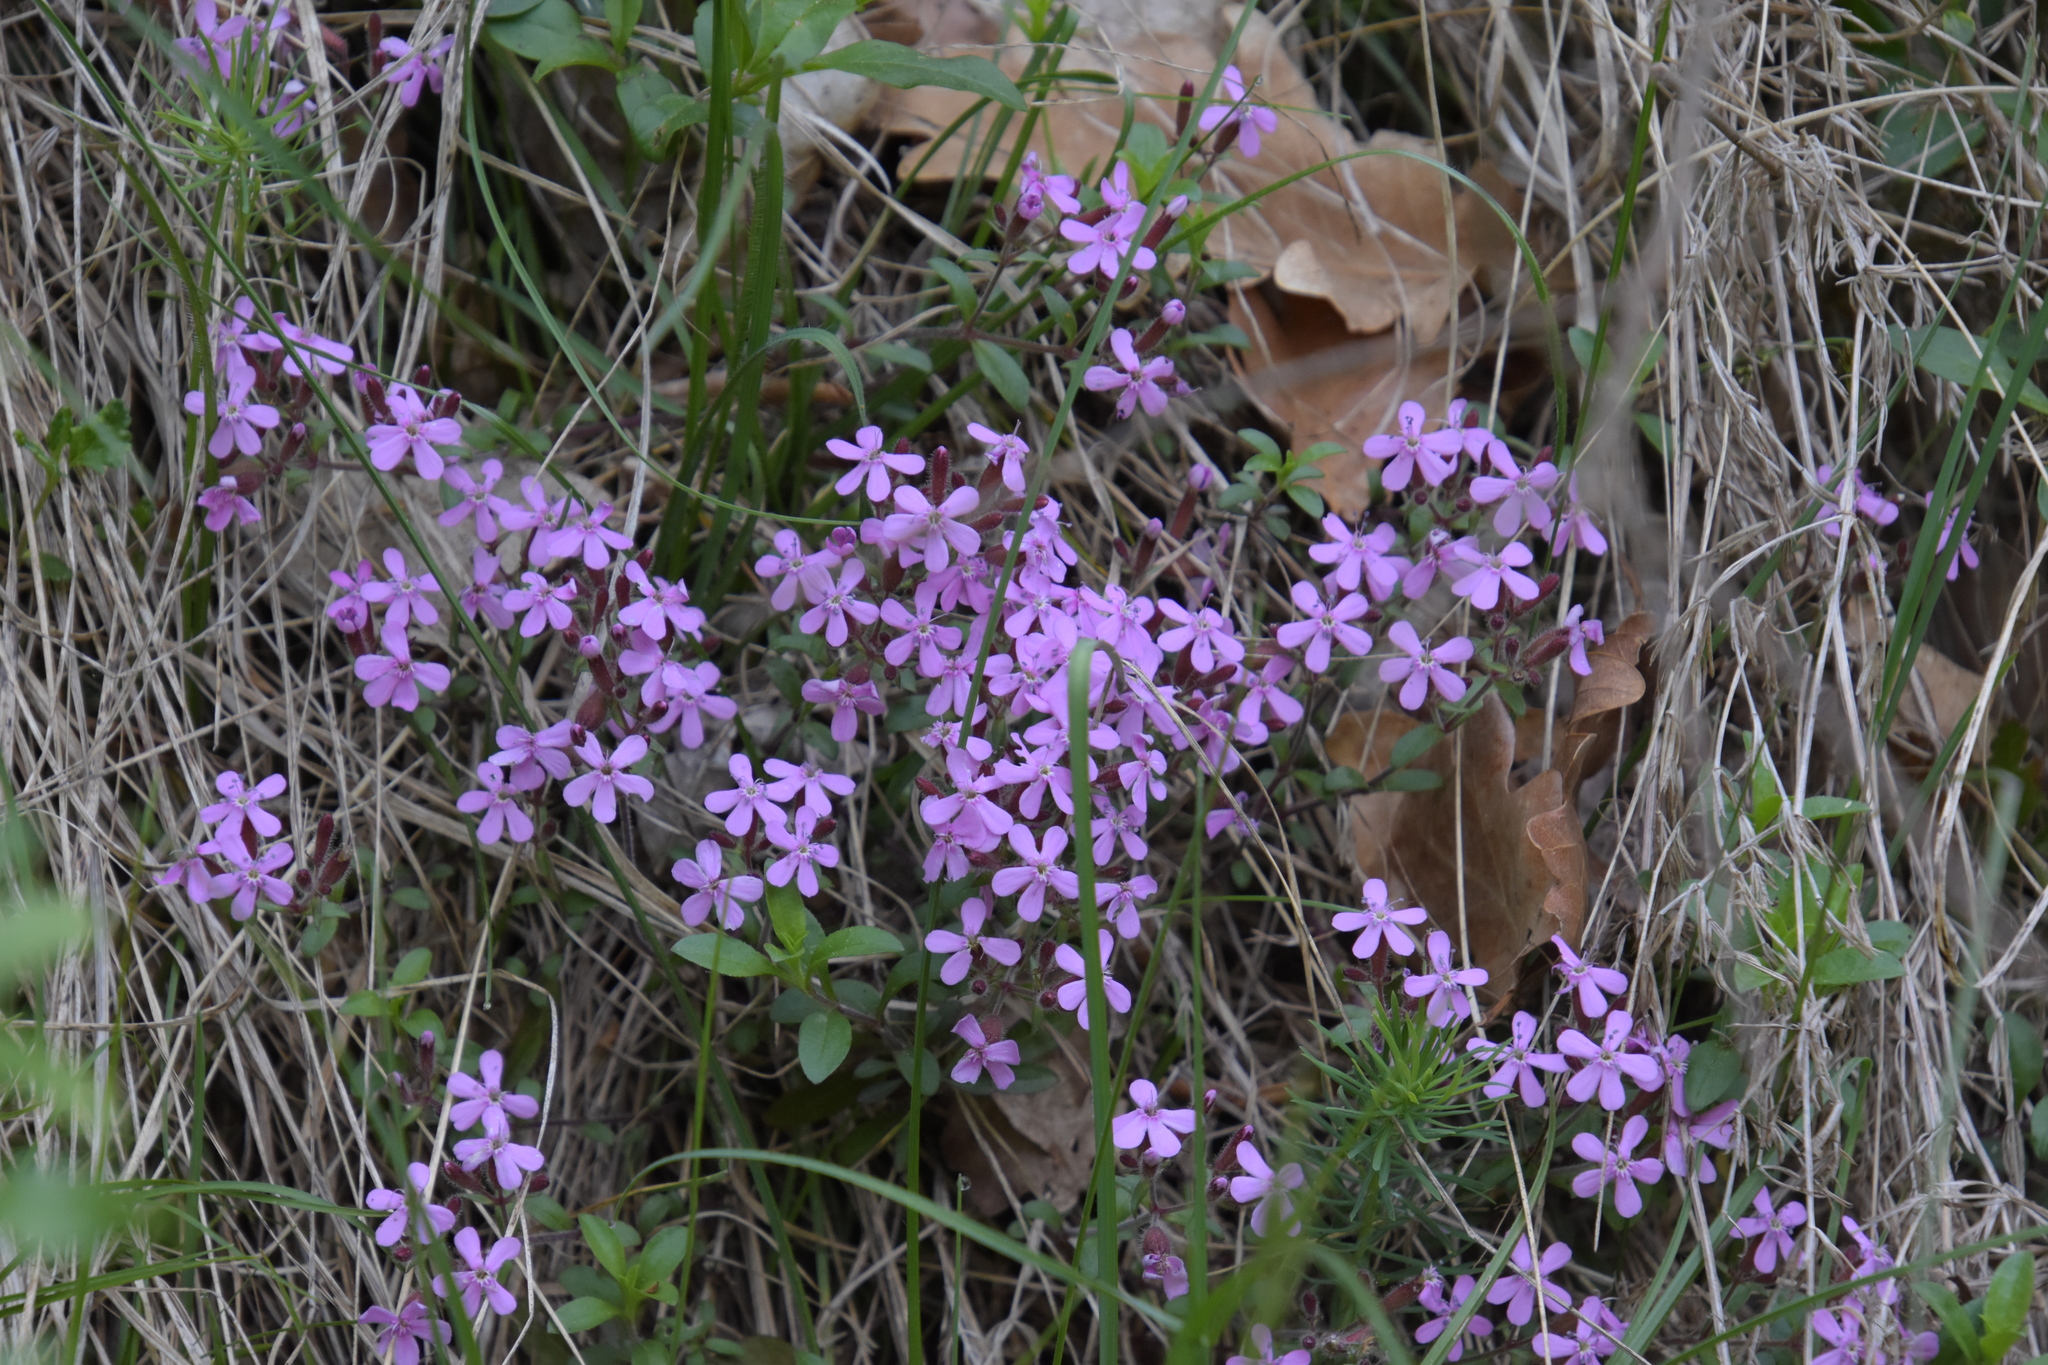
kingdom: Plantae
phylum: Tracheophyta
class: Magnoliopsida
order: Caryophyllales
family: Caryophyllaceae
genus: Saponaria
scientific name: Saponaria ocymoides
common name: Rock soapwort
